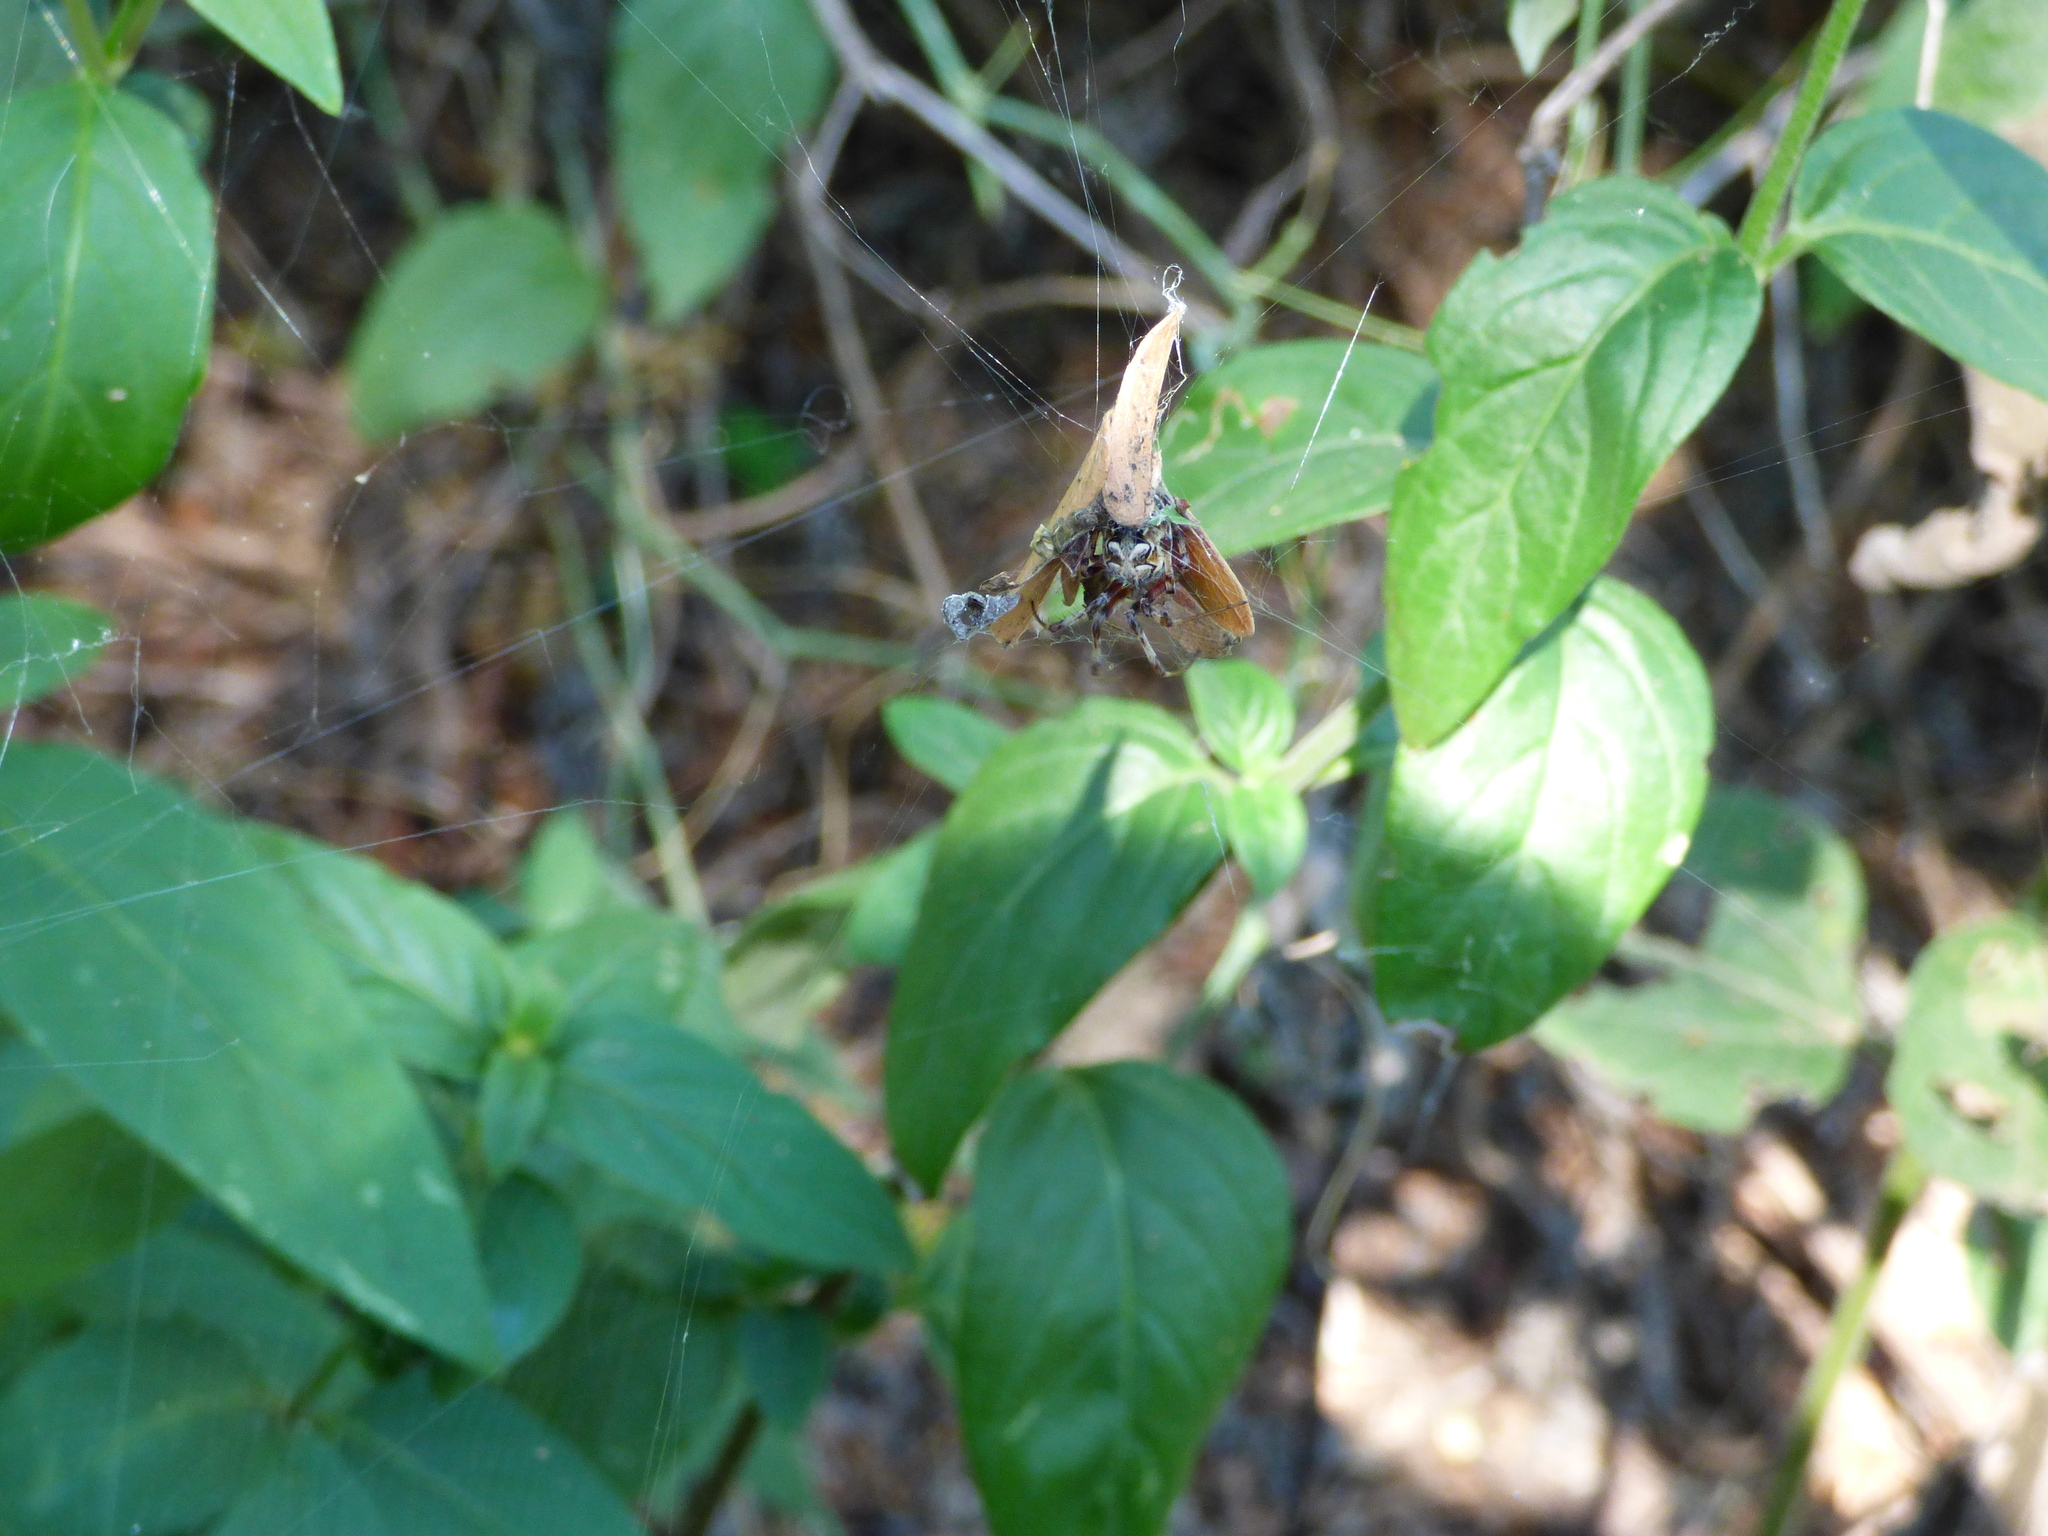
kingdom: Animalia
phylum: Arthropoda
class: Arachnida
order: Araneae
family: Araneidae
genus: Metepeira
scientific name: Metepeira
